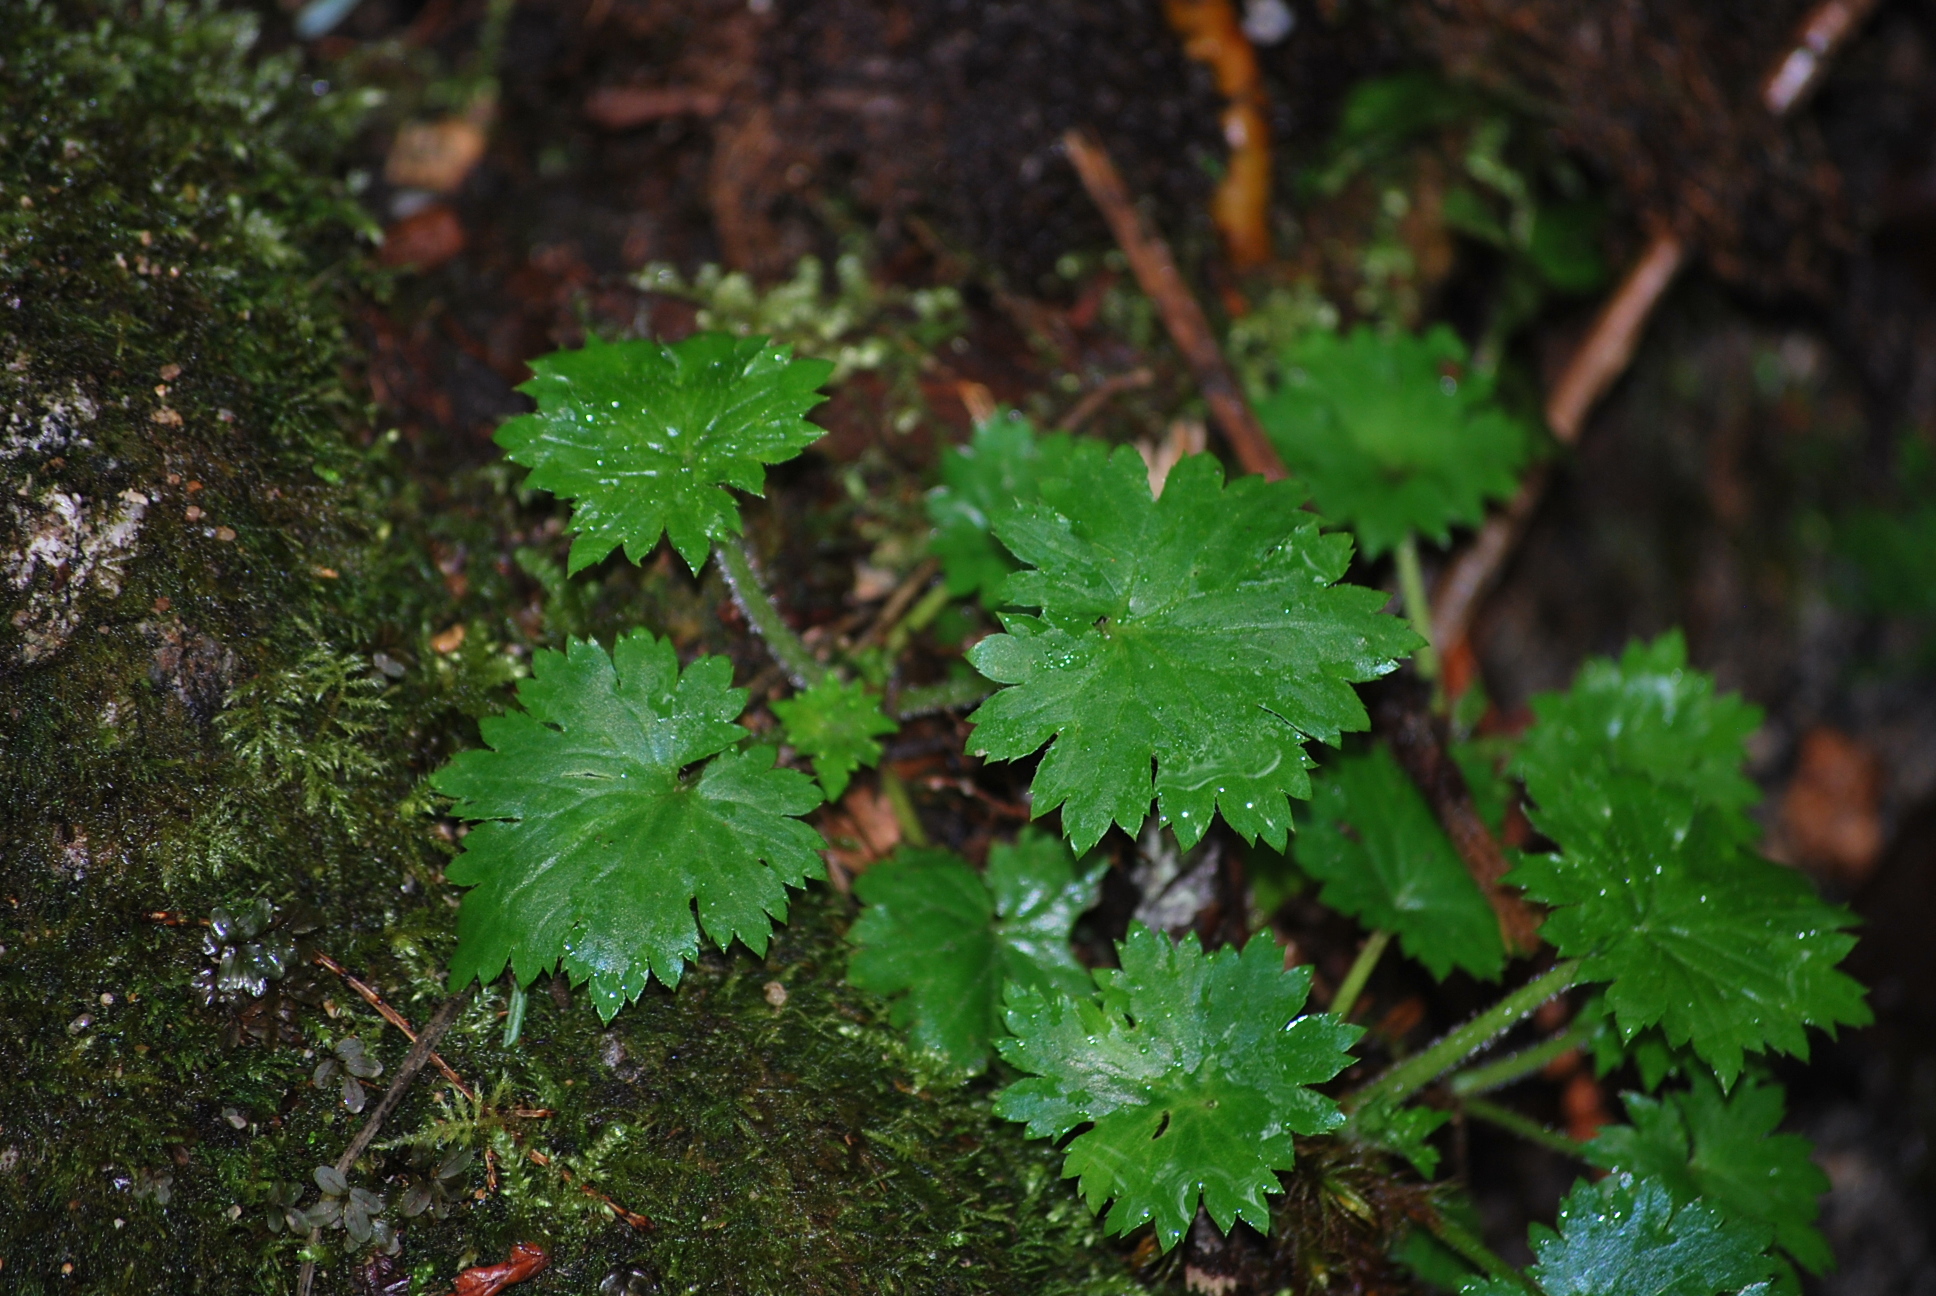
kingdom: Plantae
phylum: Tracheophyta
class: Magnoliopsida
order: Saxifragales
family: Saxifragaceae
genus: Boykinia
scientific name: Boykinia occidentalis
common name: Coast boykinia
